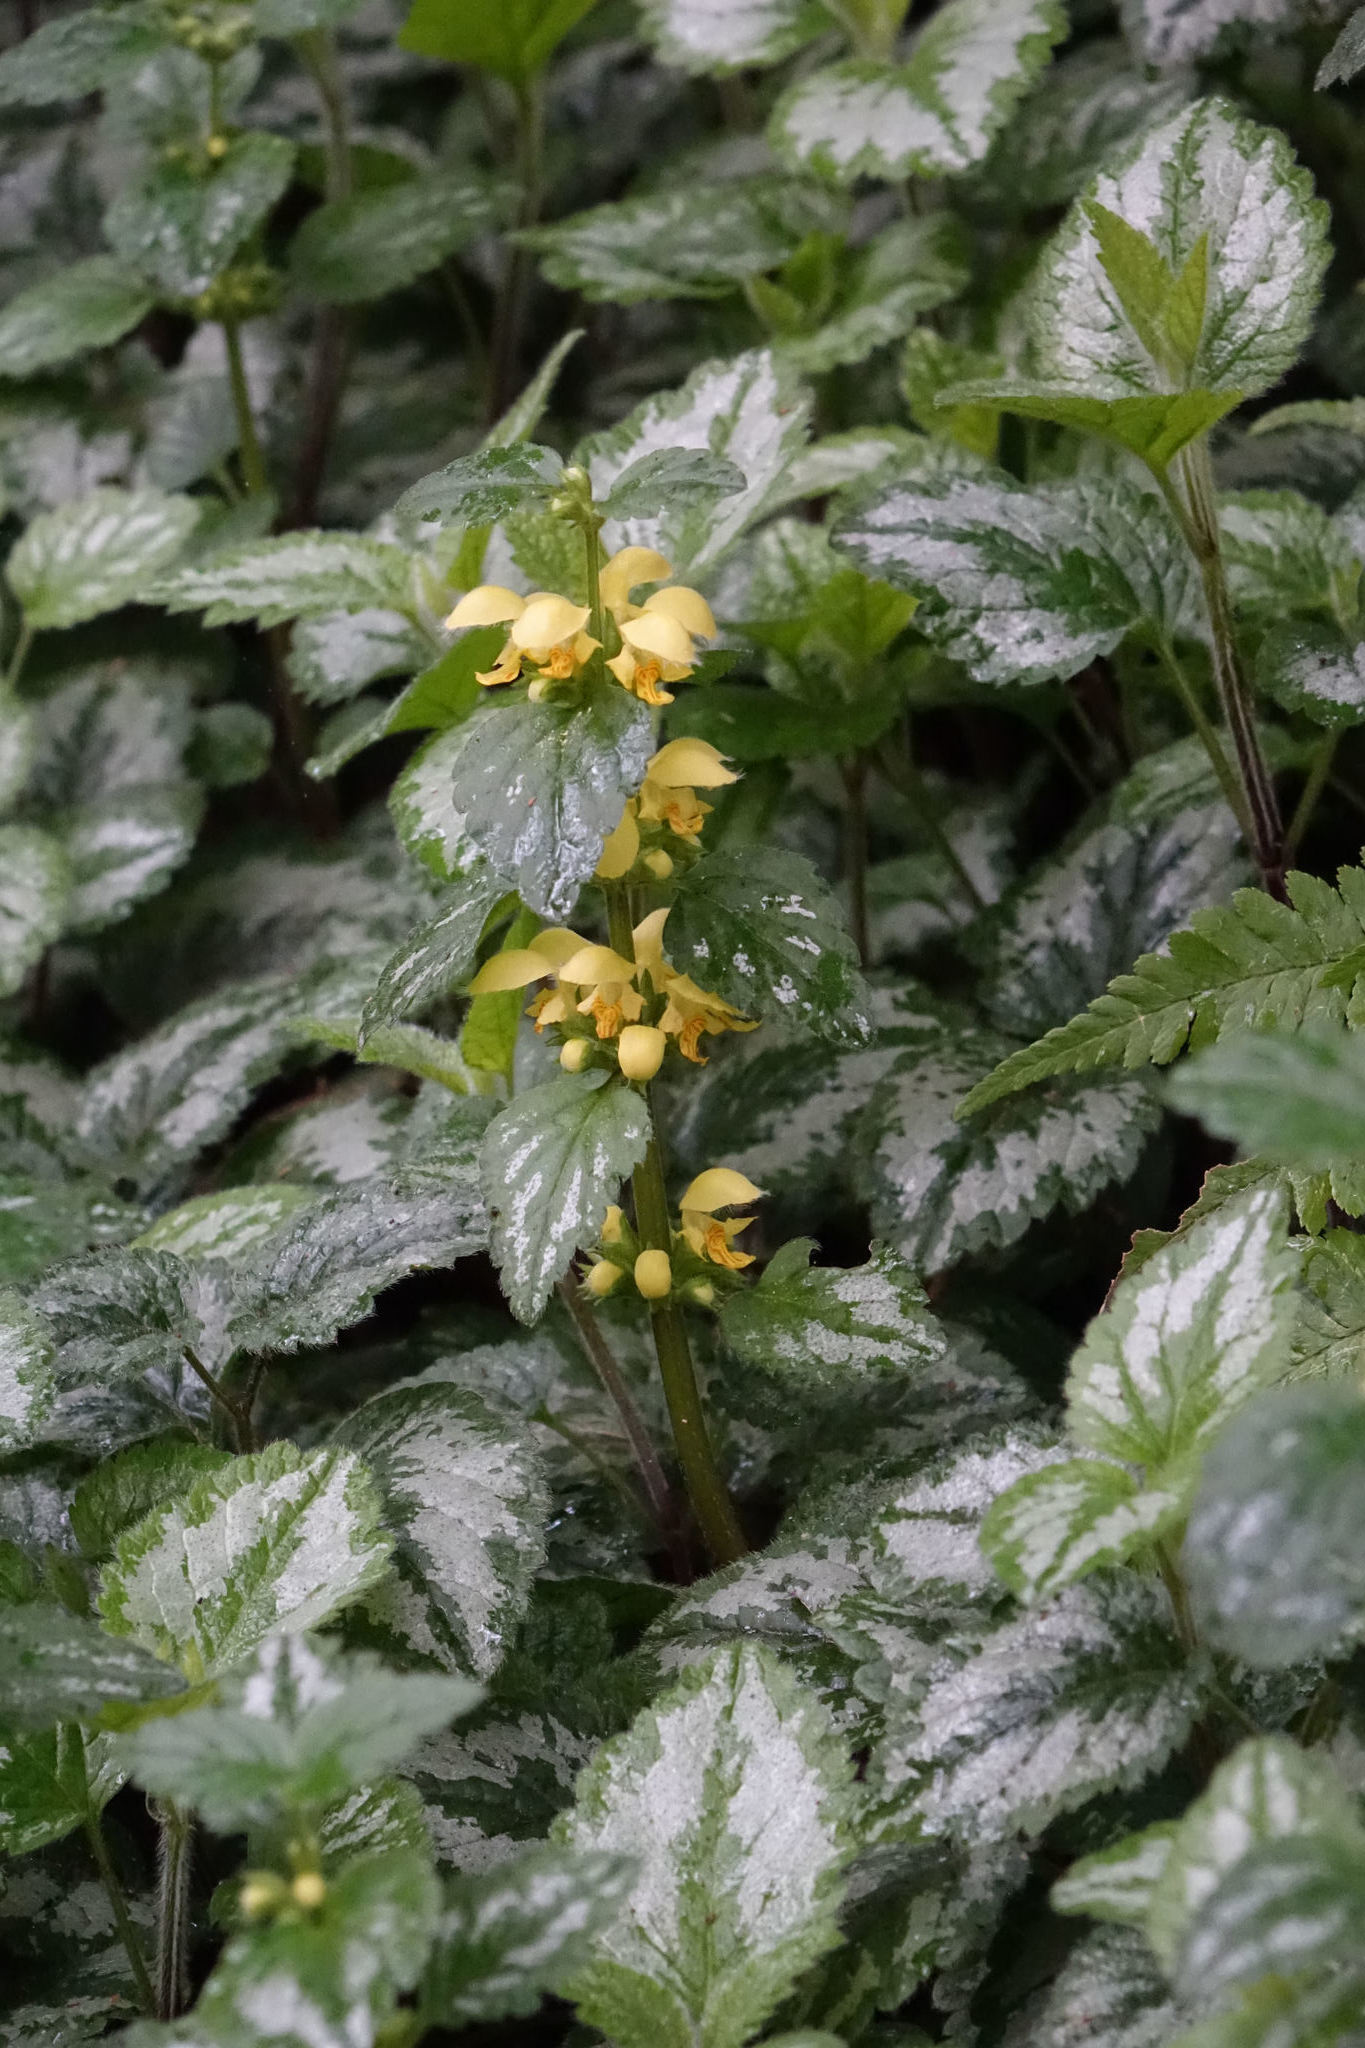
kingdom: Plantae
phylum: Tracheophyta
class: Magnoliopsida
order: Lamiales
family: Lamiaceae
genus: Lamium
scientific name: Lamium galeobdolon
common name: Yellow archangel
